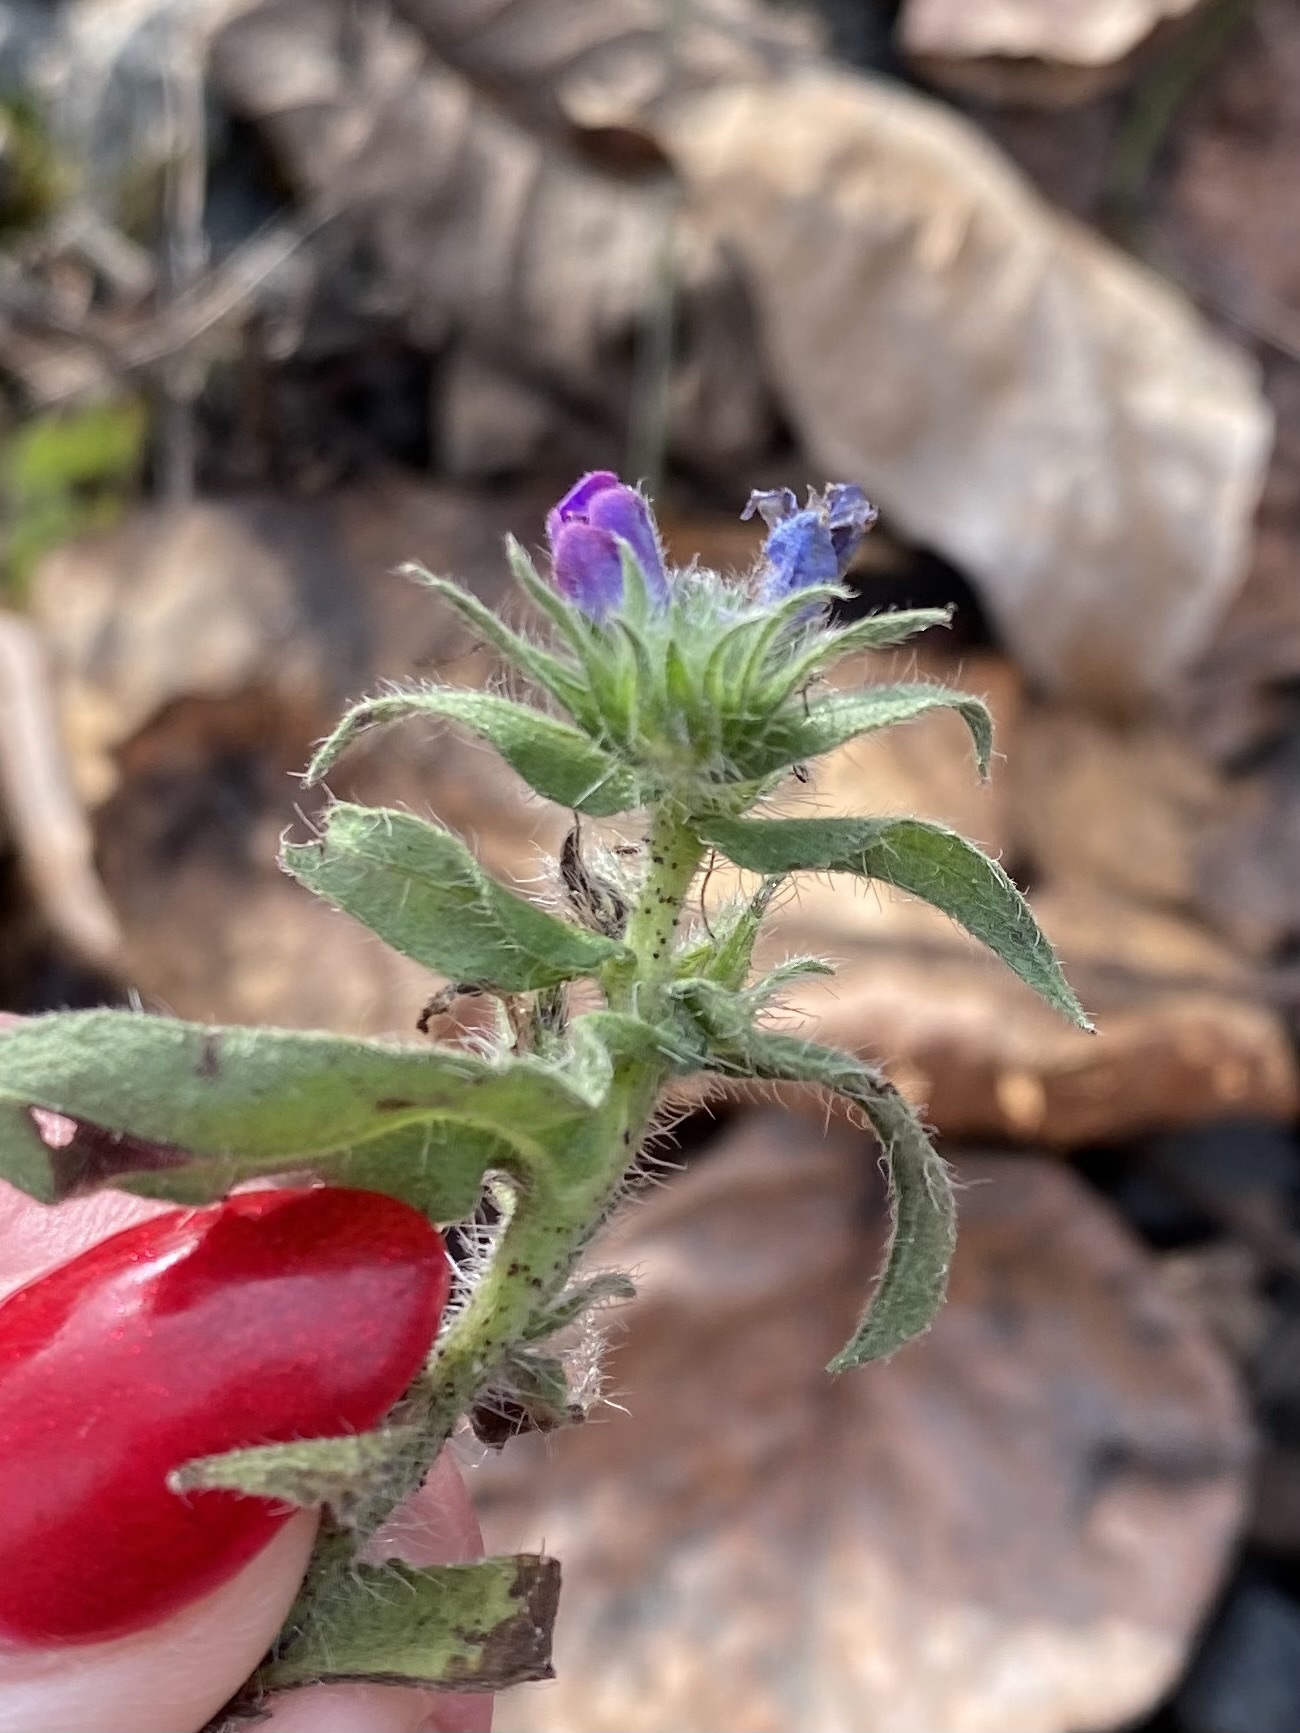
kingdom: Plantae
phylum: Tracheophyta
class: Magnoliopsida
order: Boraginales
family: Boraginaceae
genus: Echium
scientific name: Echium vulgare
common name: Common viper's bugloss
